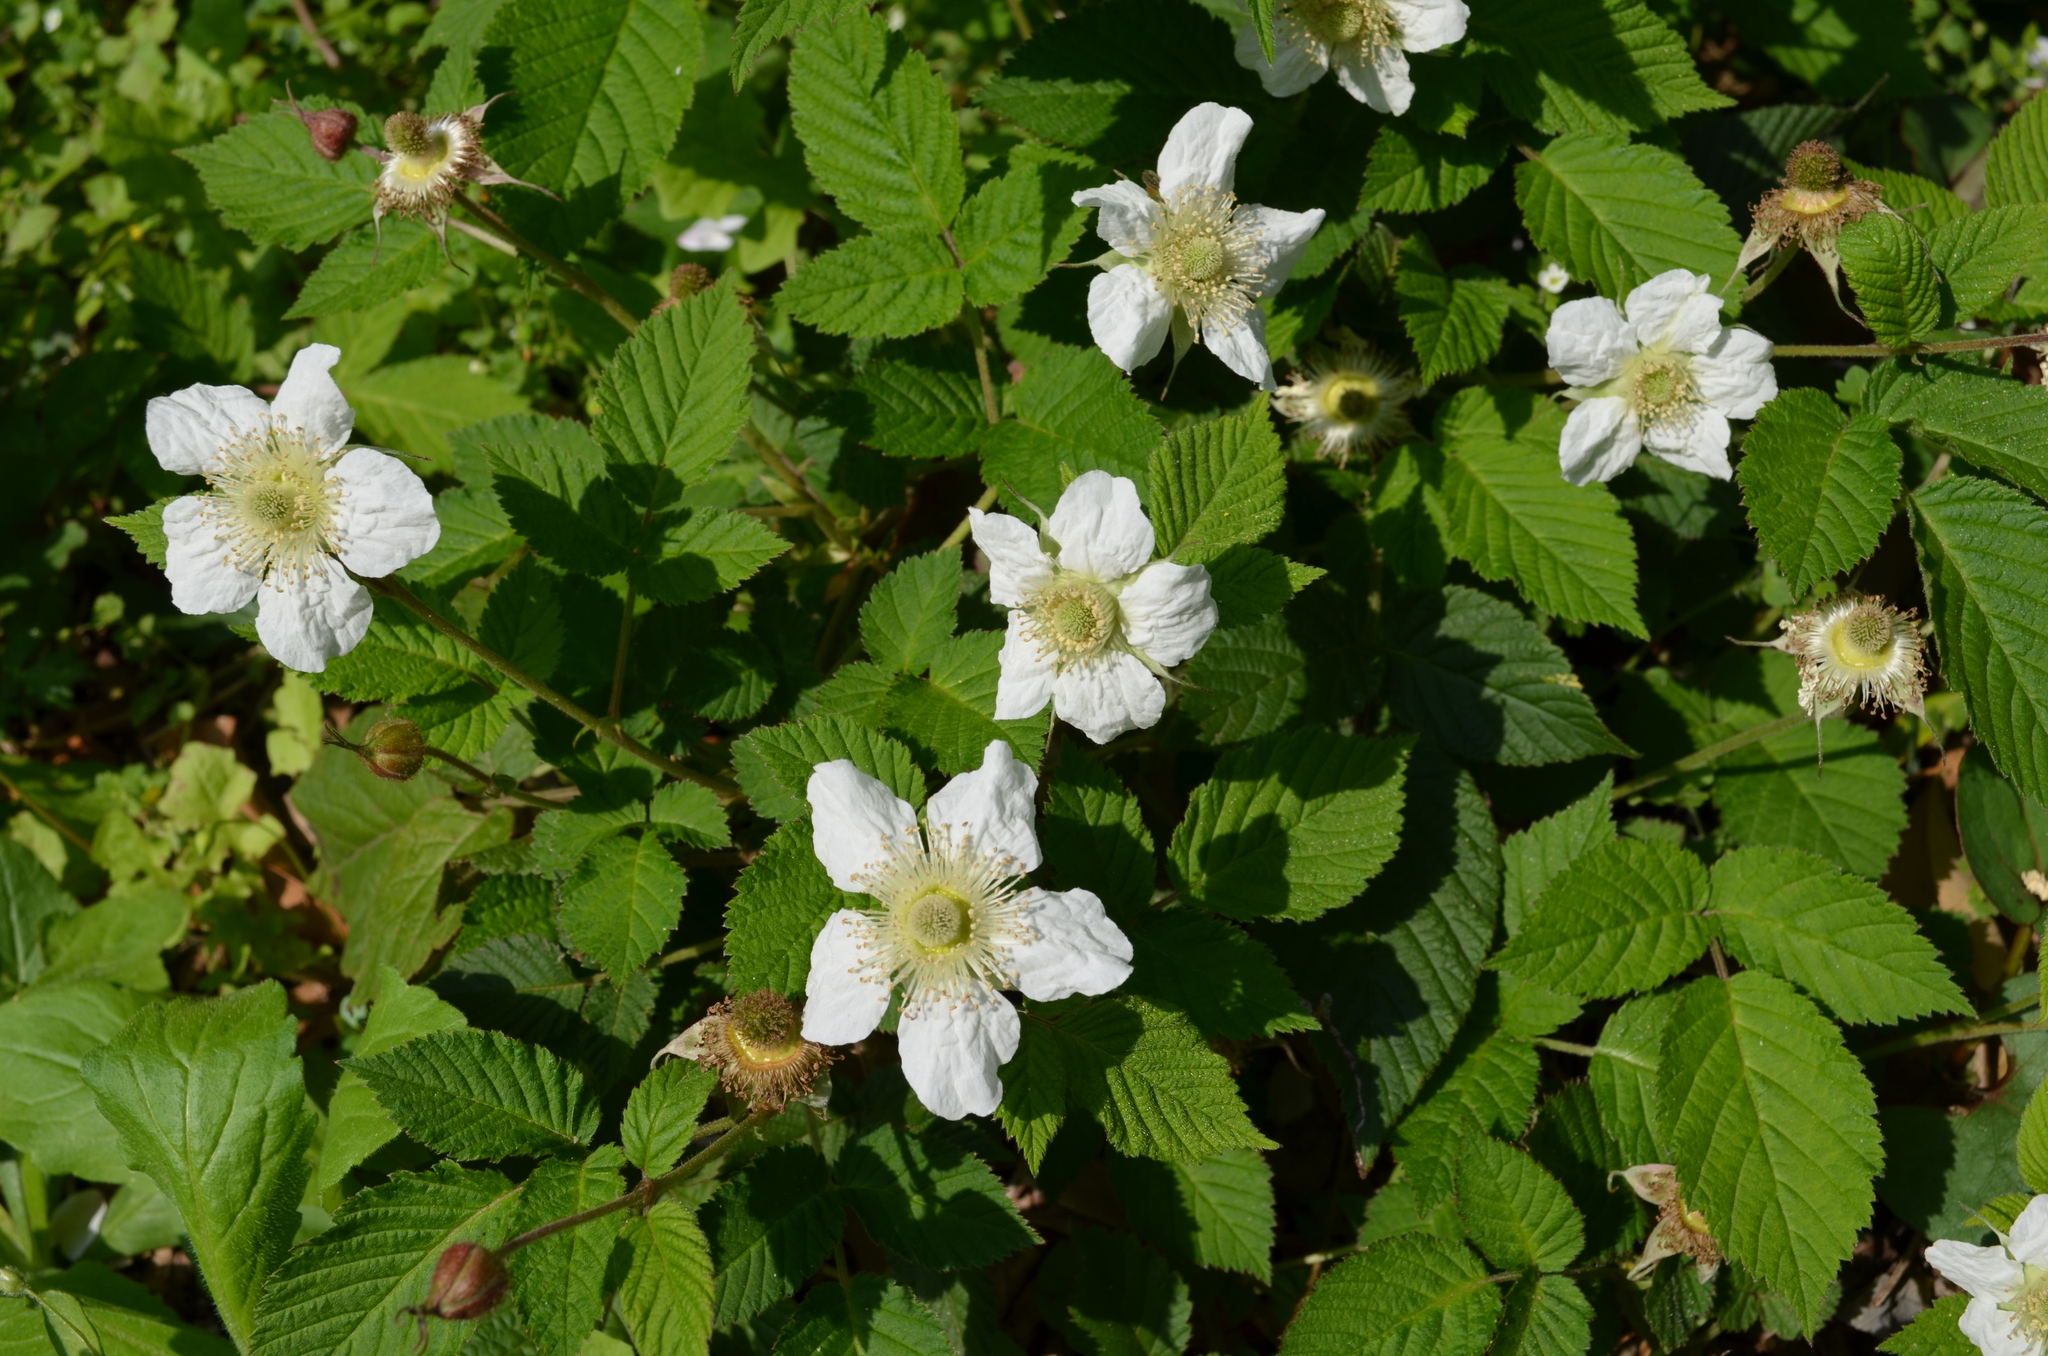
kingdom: Plantae
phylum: Tracheophyta
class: Magnoliopsida
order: Rosales
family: Rosaceae
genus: Rubus
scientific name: Rubus hirsutus
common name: Hirsute raspberry
